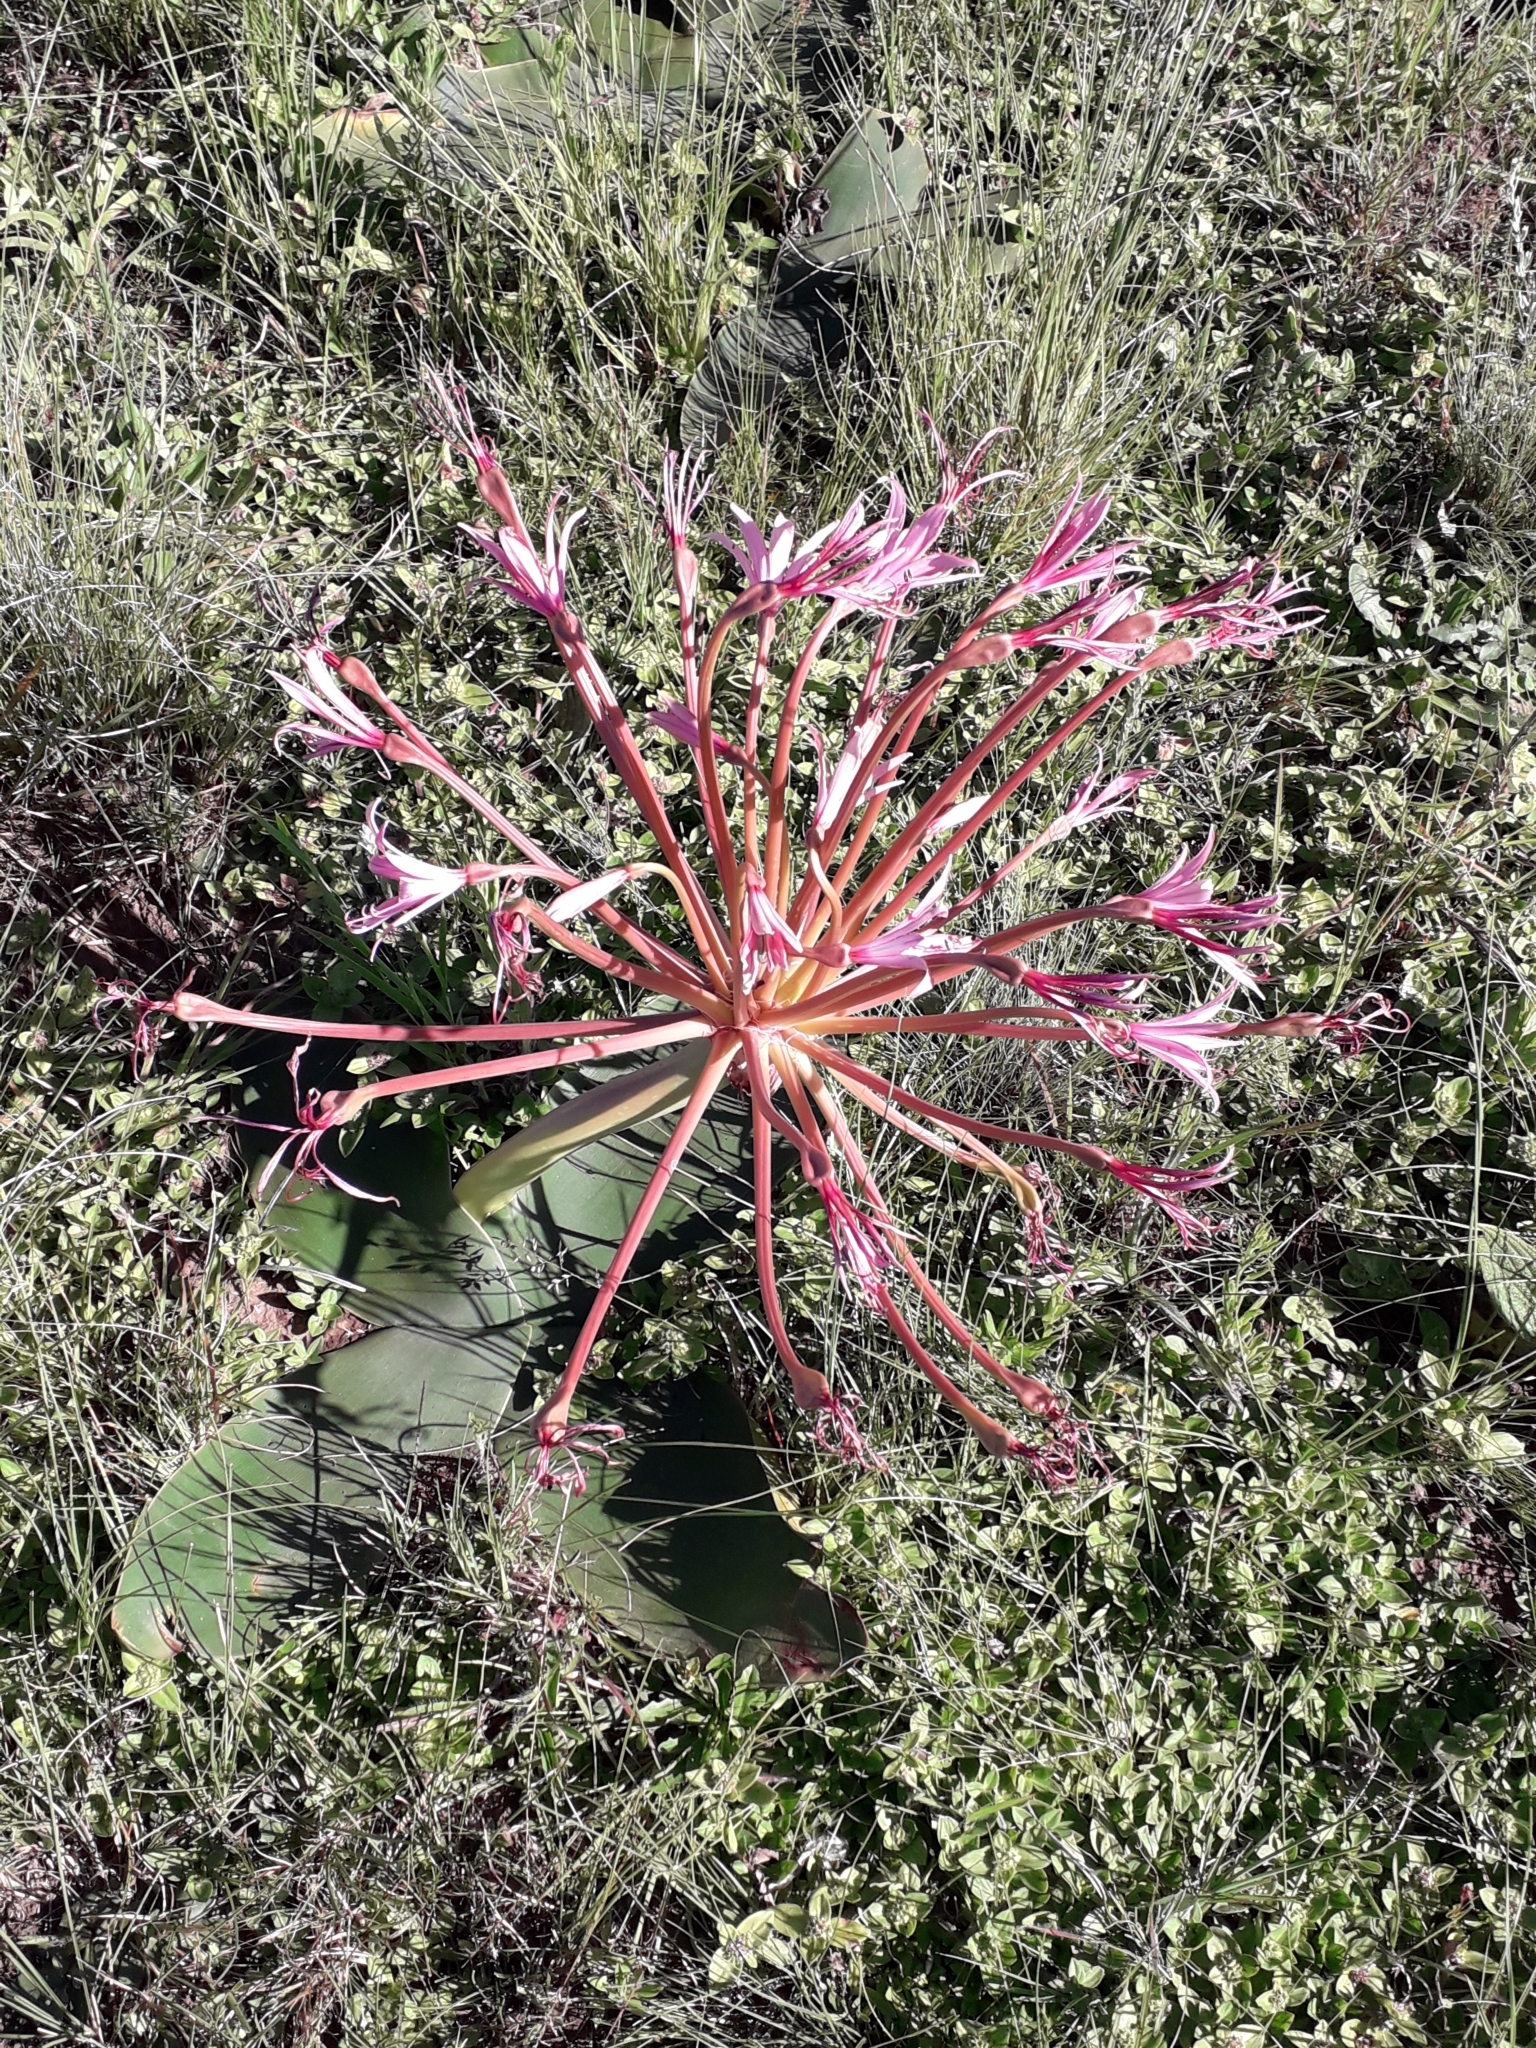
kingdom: Plantae
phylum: Tracheophyta
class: Liliopsida
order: Asparagales
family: Amaryllidaceae
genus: Brunsvigia
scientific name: Brunsvigia radulosa
